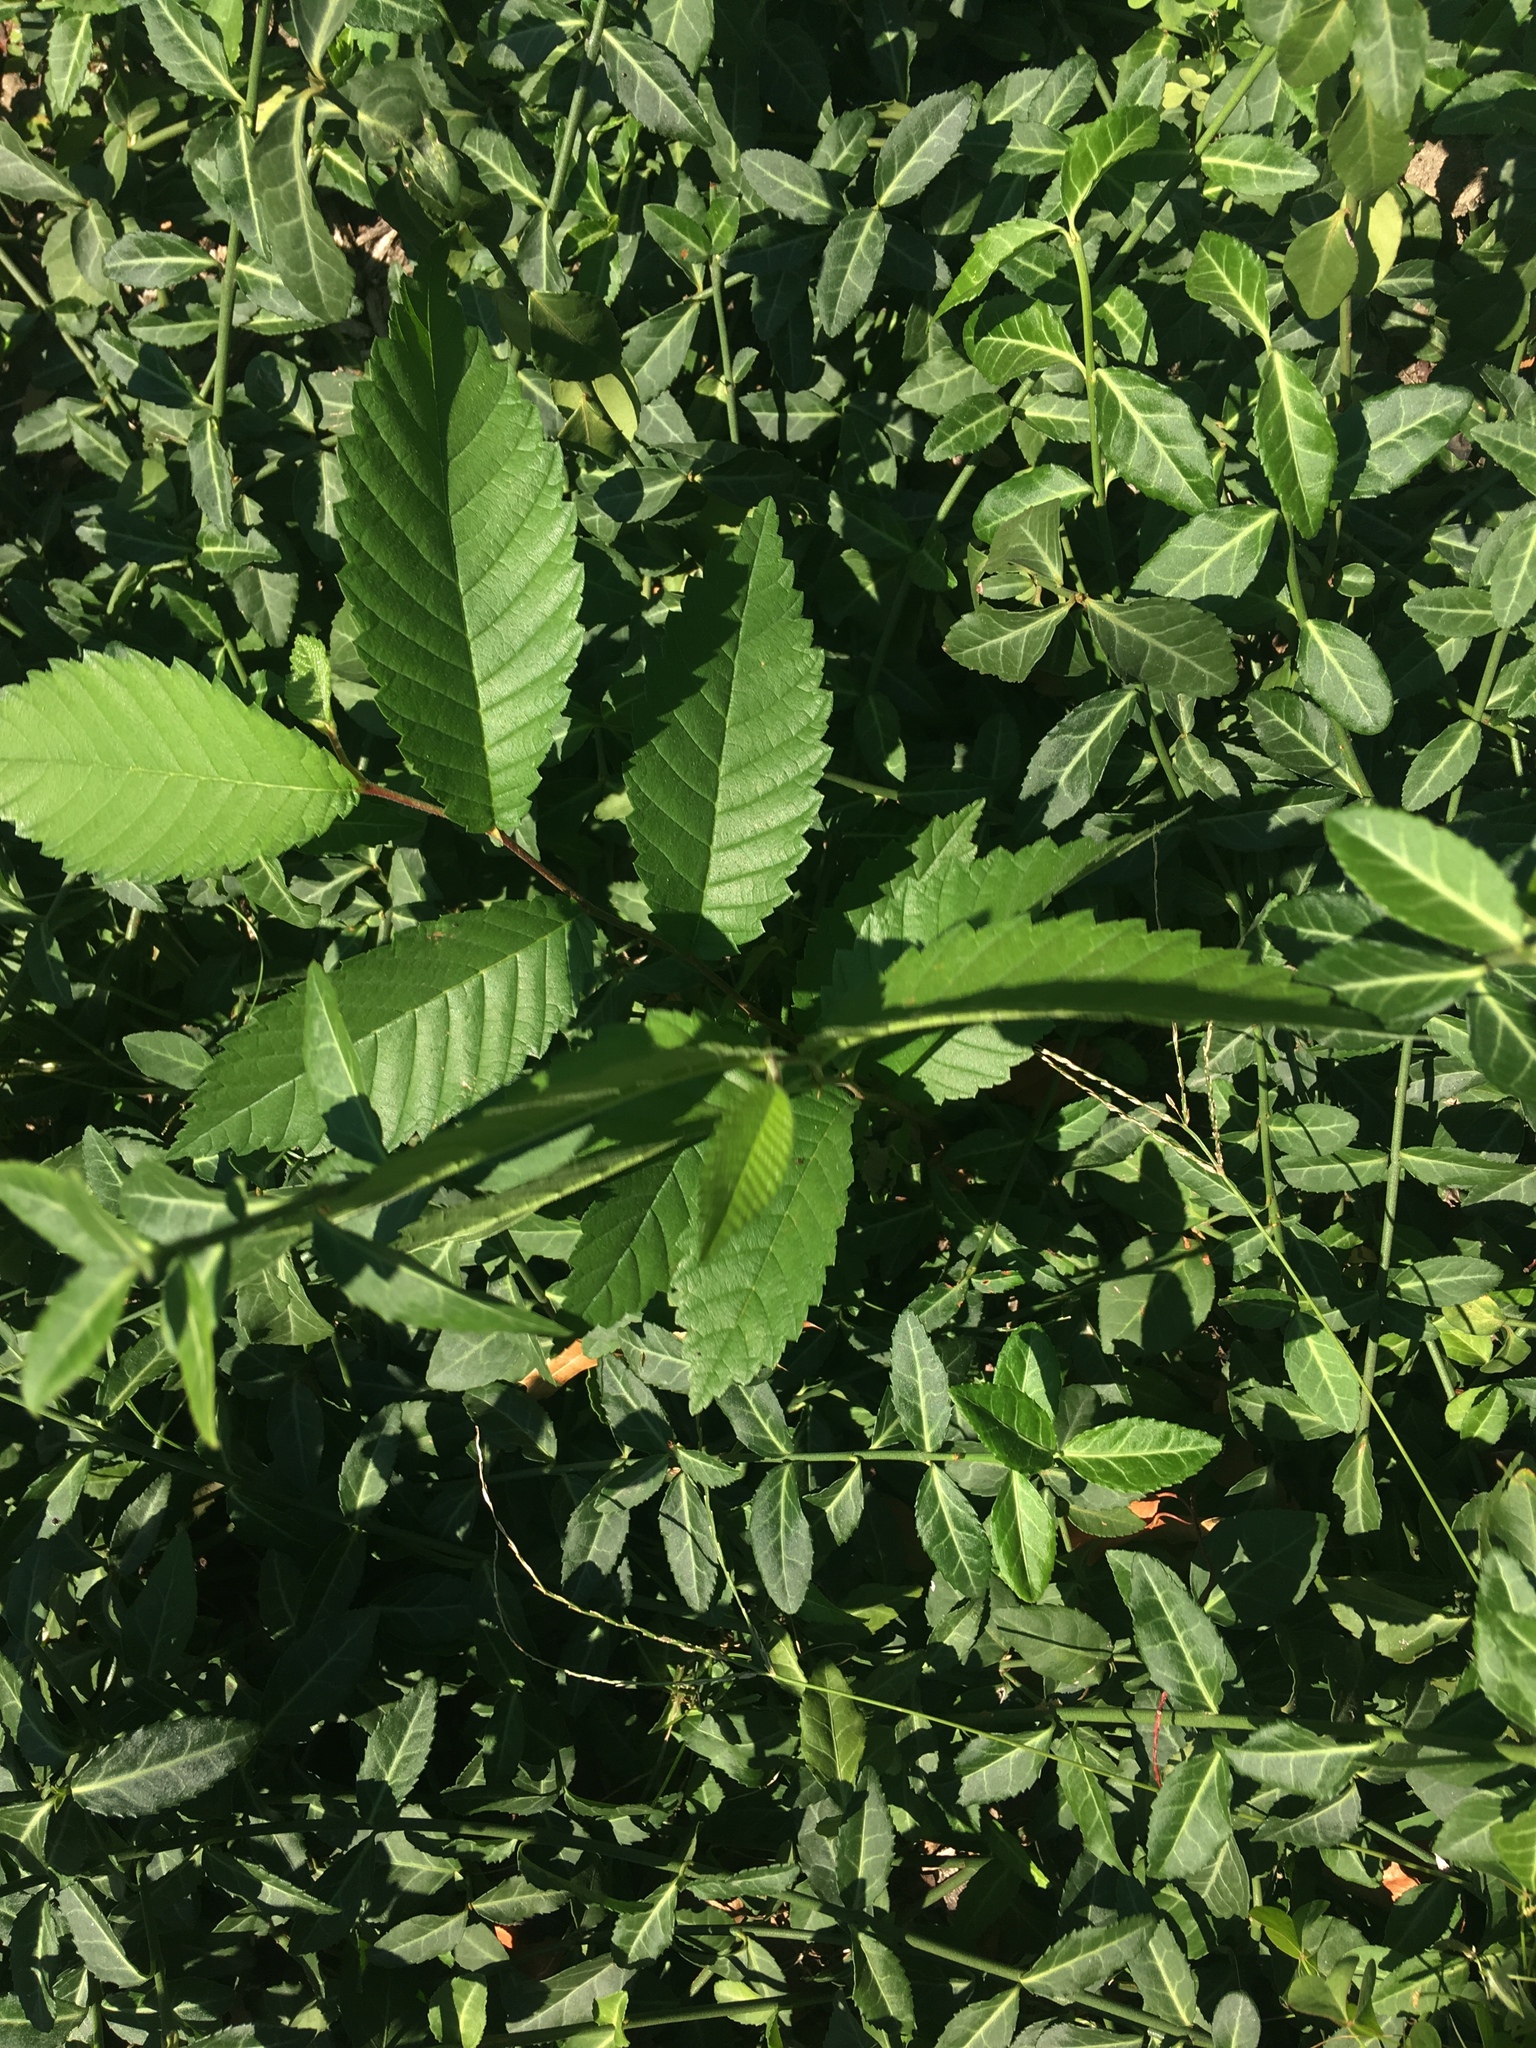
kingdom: Plantae
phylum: Tracheophyta
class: Magnoliopsida
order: Rosales
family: Ulmaceae
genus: Zelkova
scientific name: Zelkova serrata
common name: Japanese zelkova
